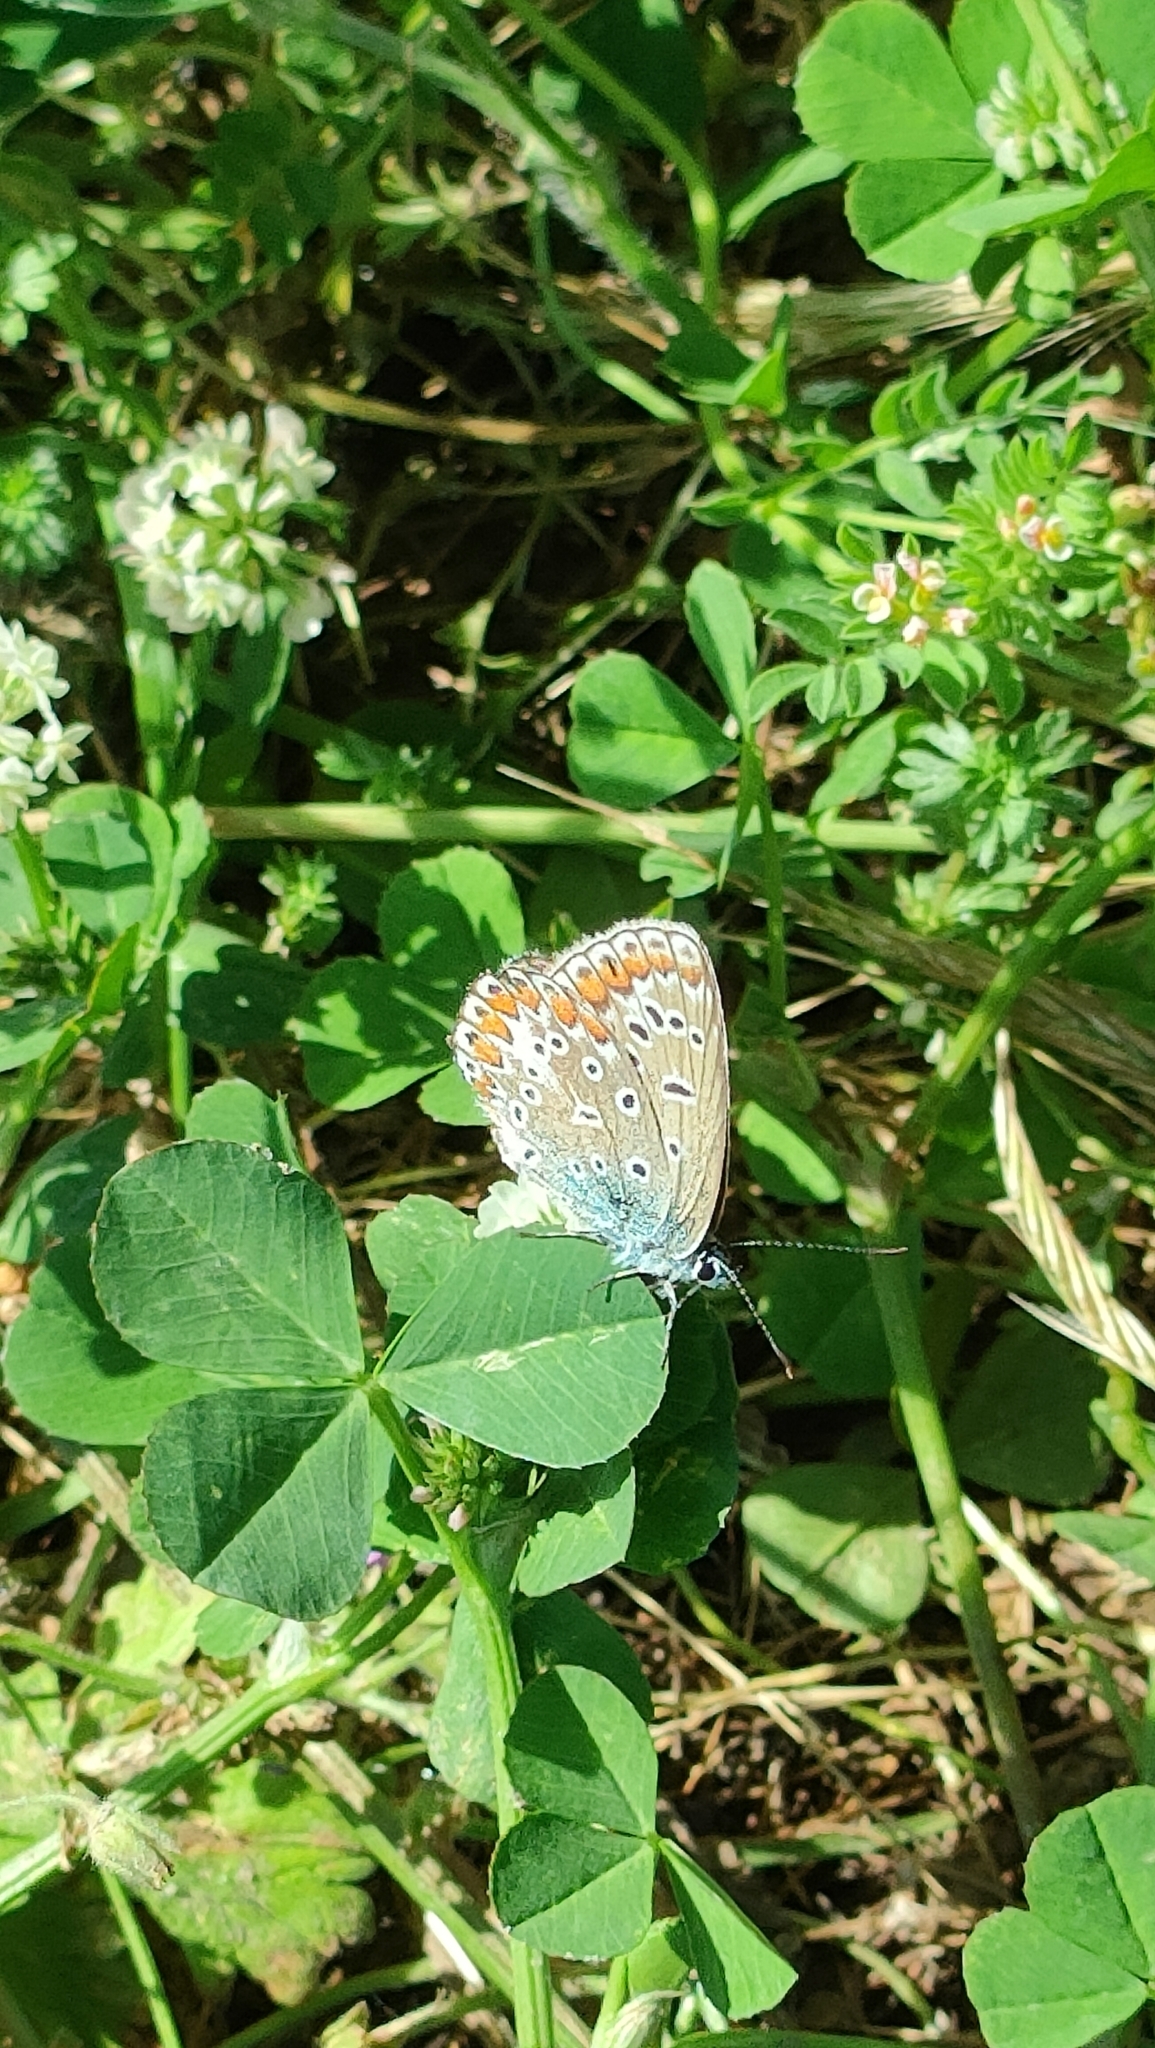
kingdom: Animalia
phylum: Arthropoda
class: Insecta
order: Lepidoptera
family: Lycaenidae
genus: Polyommatus
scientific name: Polyommatus icarus
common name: Common blue
